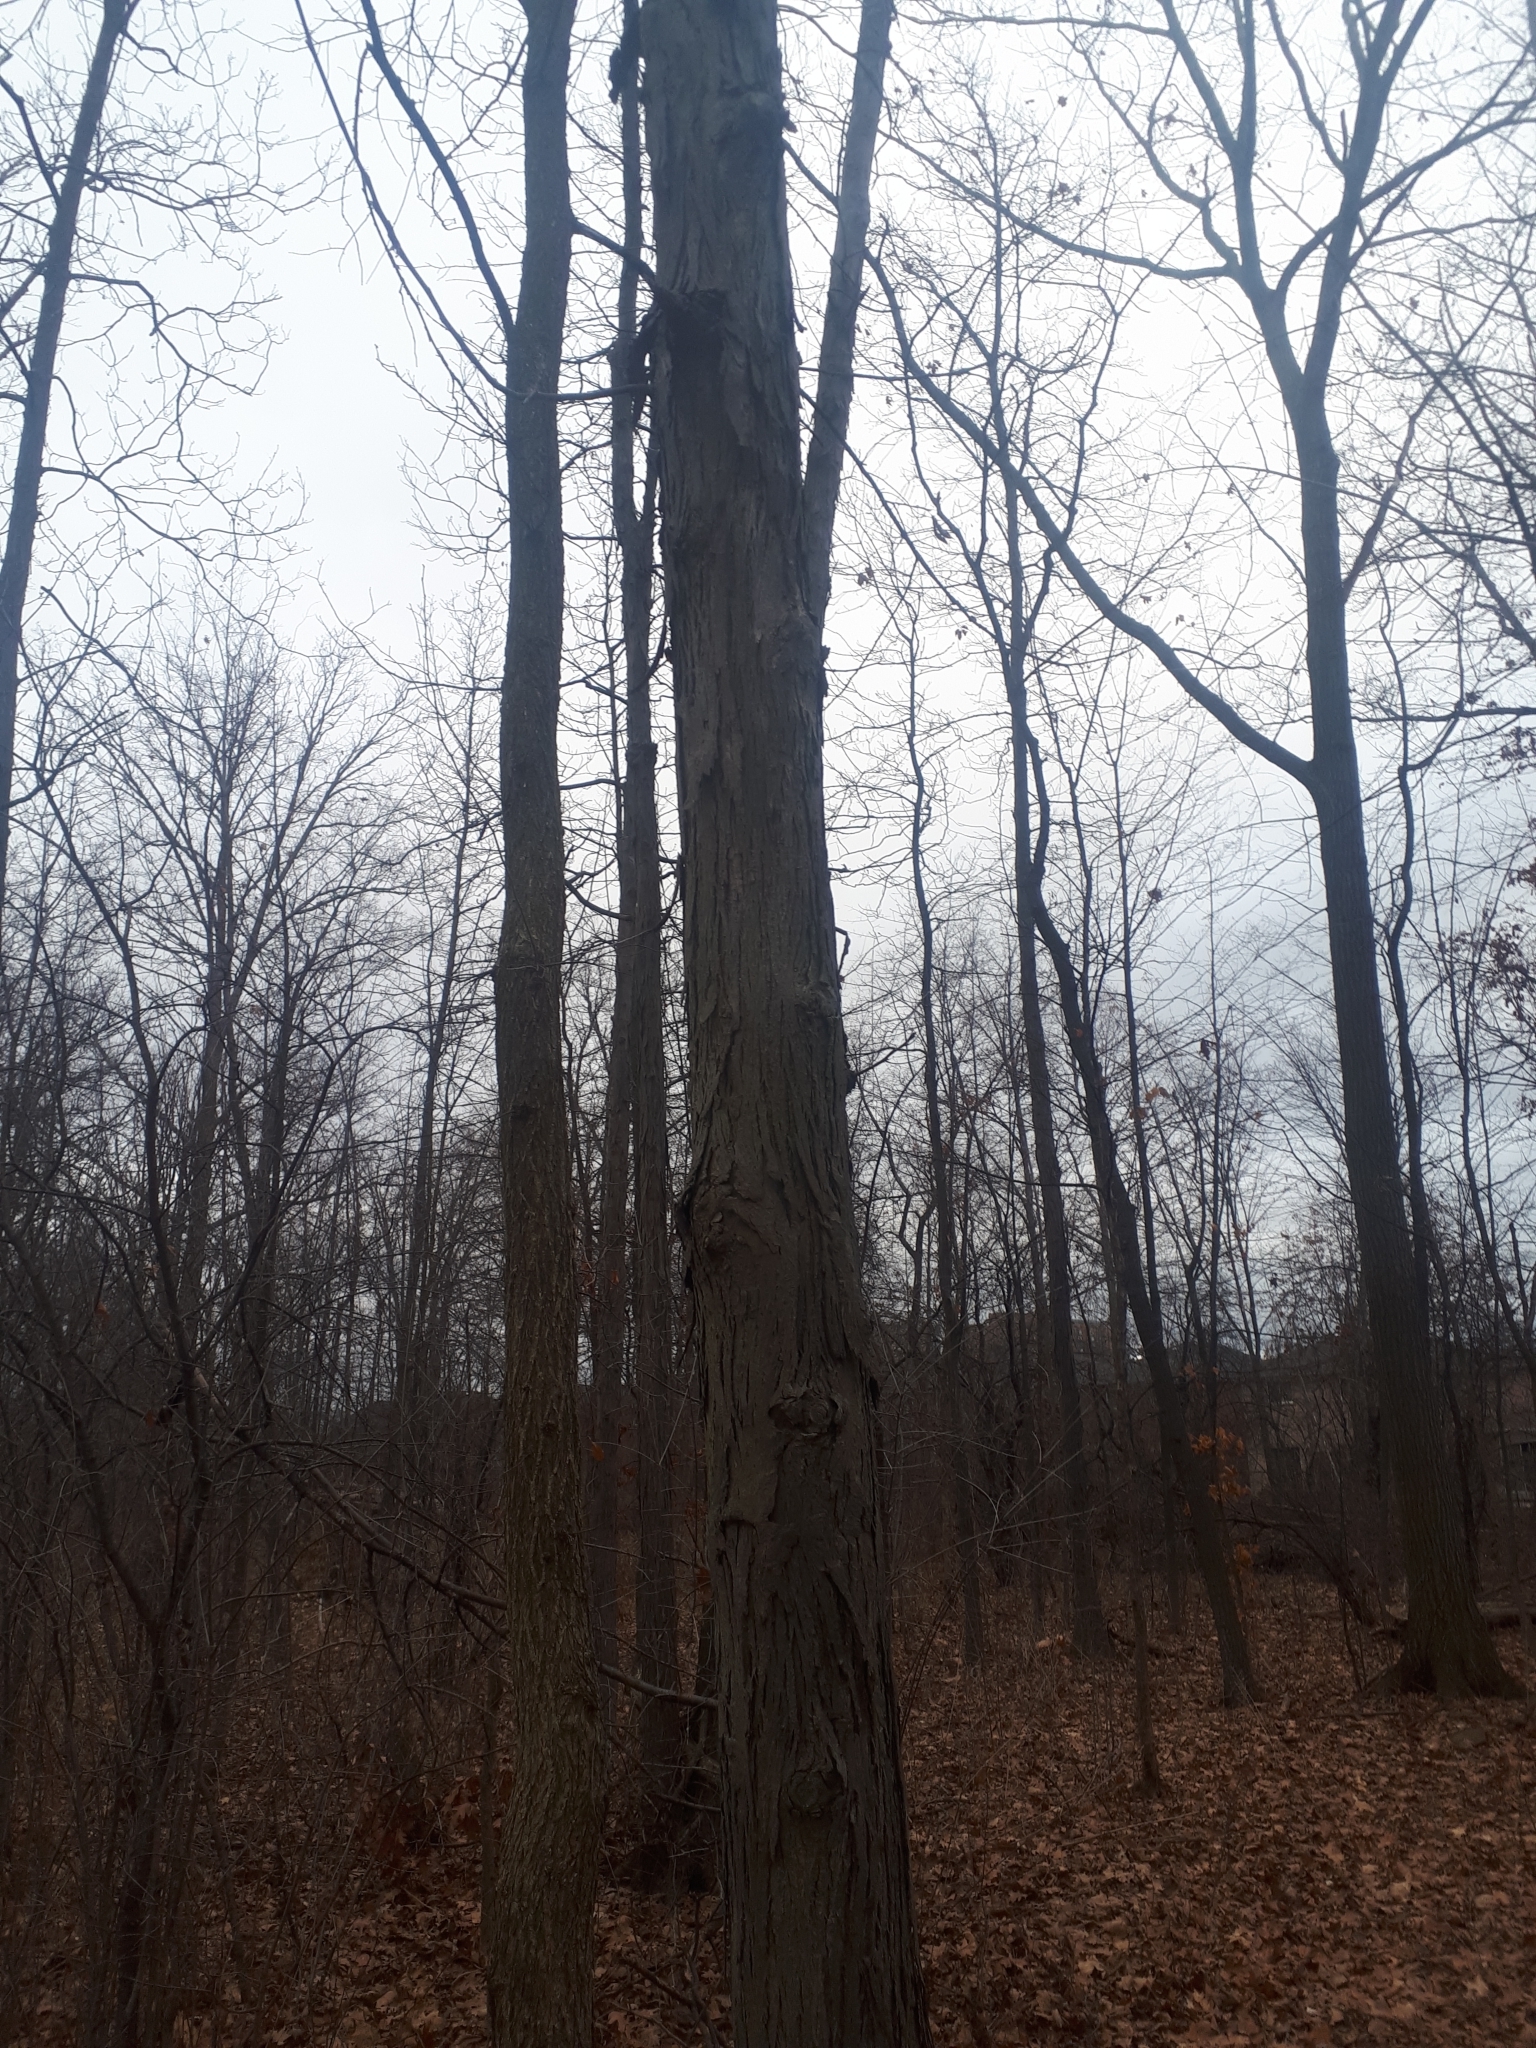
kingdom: Plantae
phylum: Tracheophyta
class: Magnoliopsida
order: Fagales
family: Juglandaceae
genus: Carya
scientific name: Carya ovata
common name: Shagbark hickory
